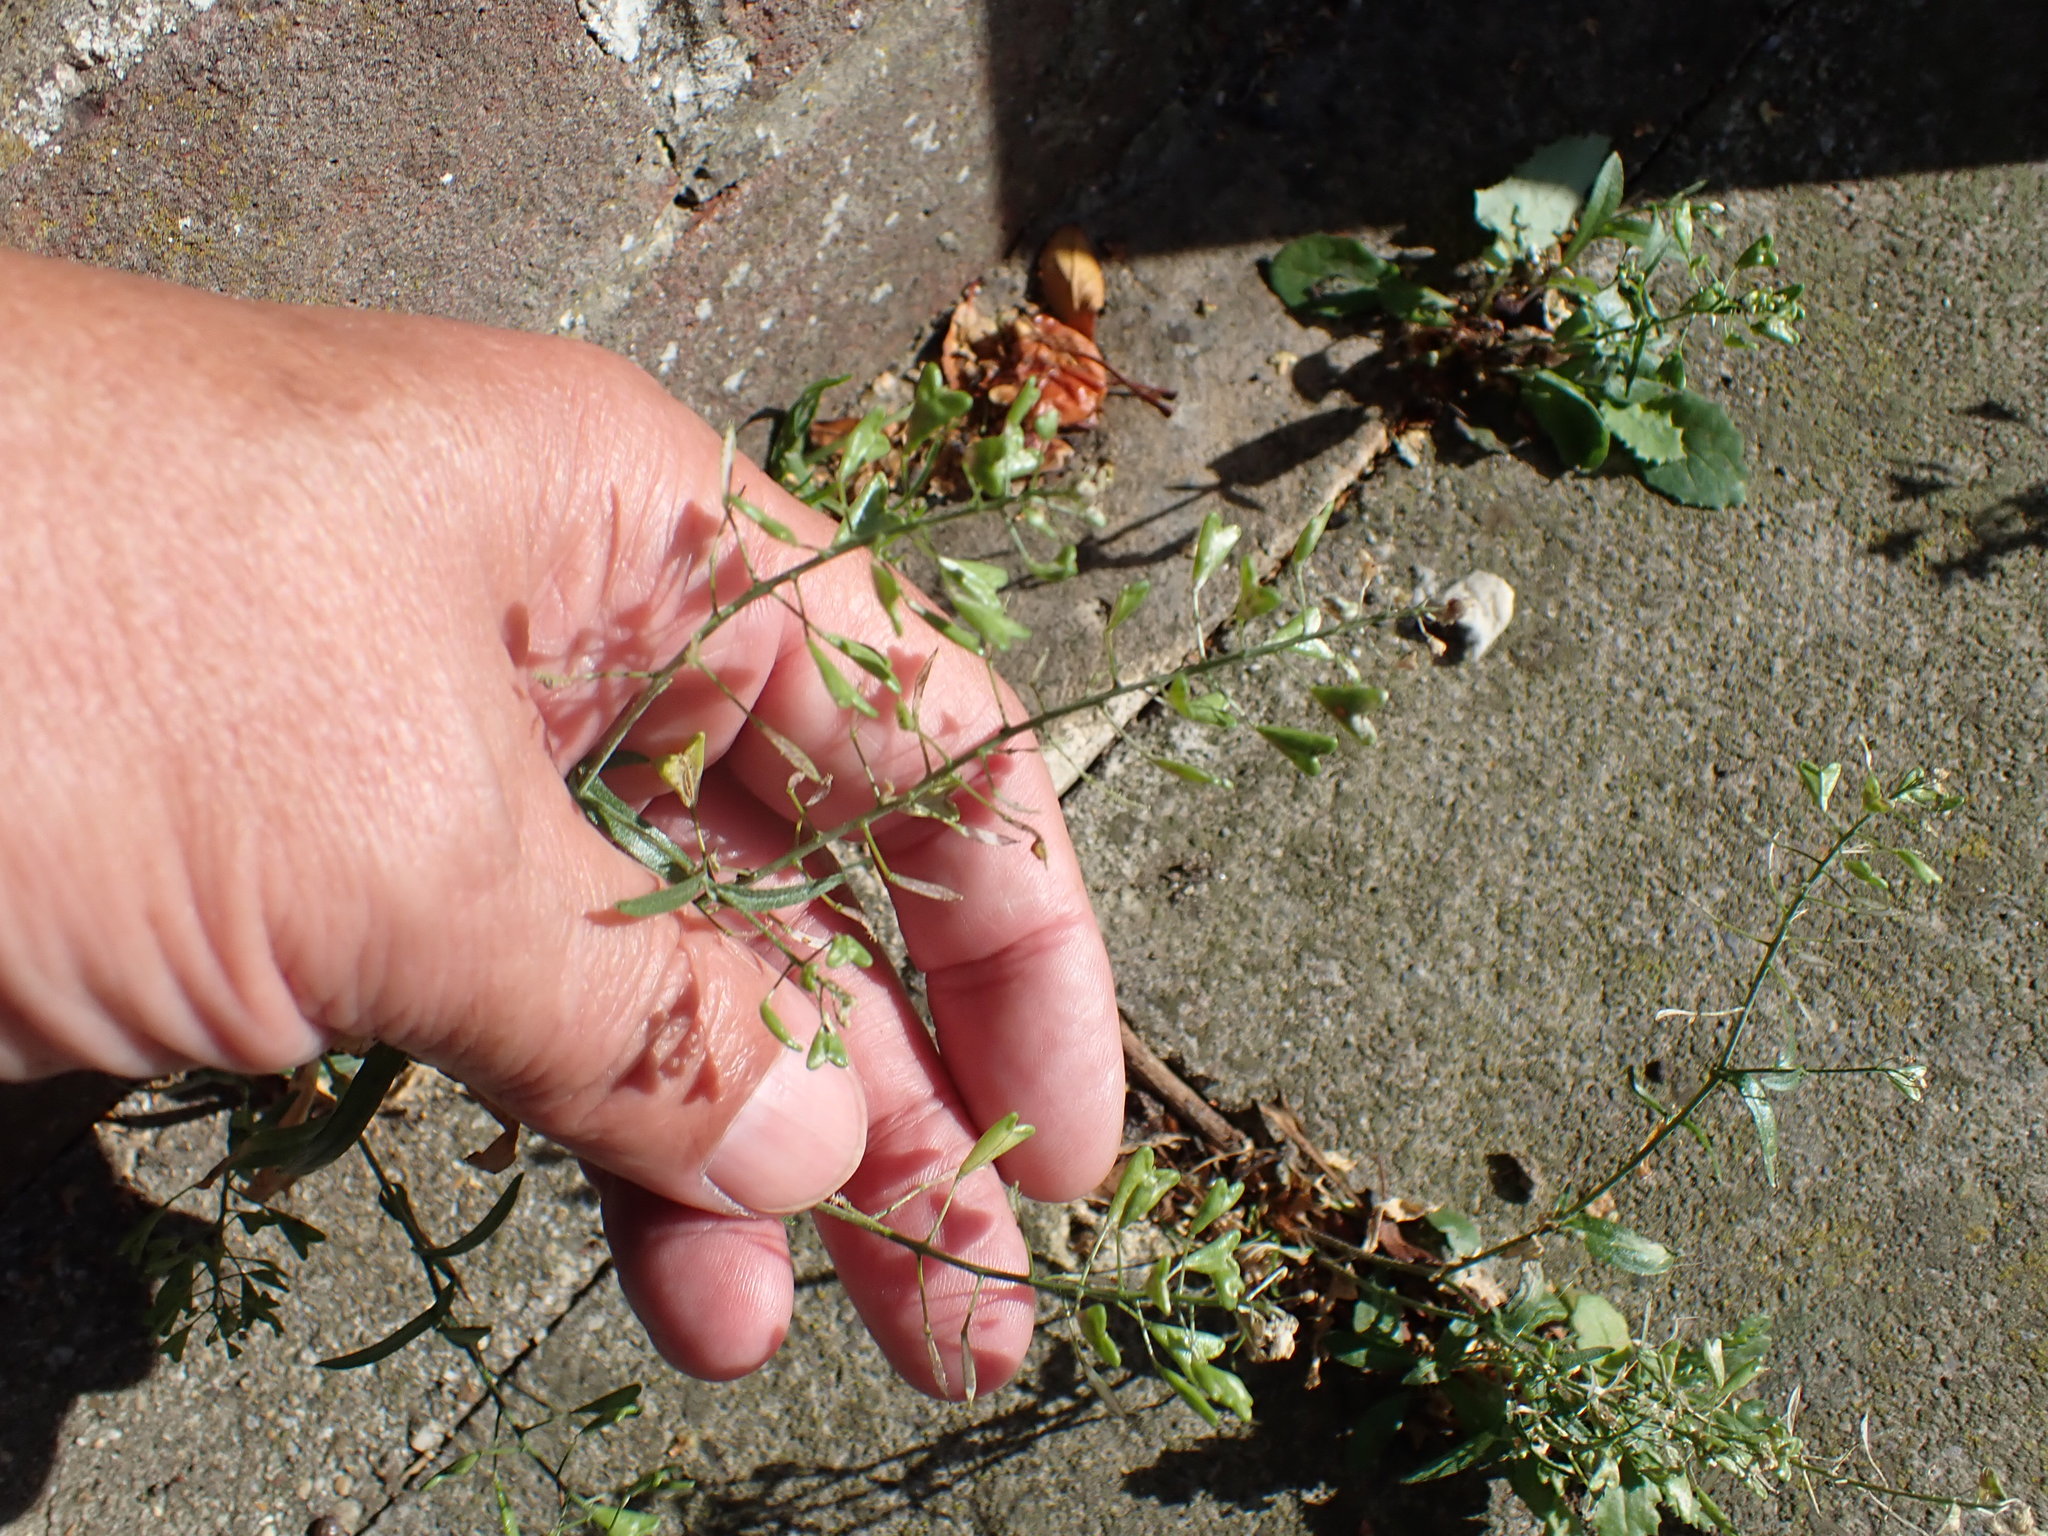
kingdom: Plantae
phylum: Tracheophyta
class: Magnoliopsida
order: Brassicales
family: Brassicaceae
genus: Capsella
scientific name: Capsella bursa-pastoris
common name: Shepherd's purse
